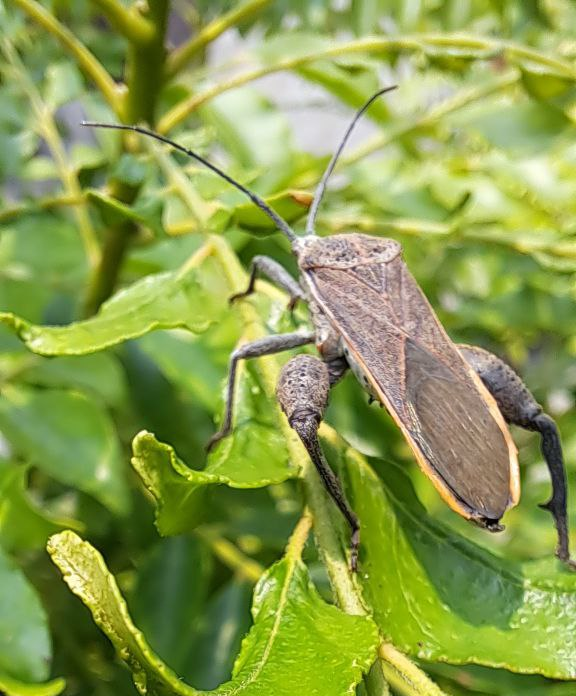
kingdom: Animalia
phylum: Arthropoda
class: Insecta
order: Hemiptera
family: Coreidae
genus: Physomerus
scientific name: Physomerus grossipes
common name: Squash bug
